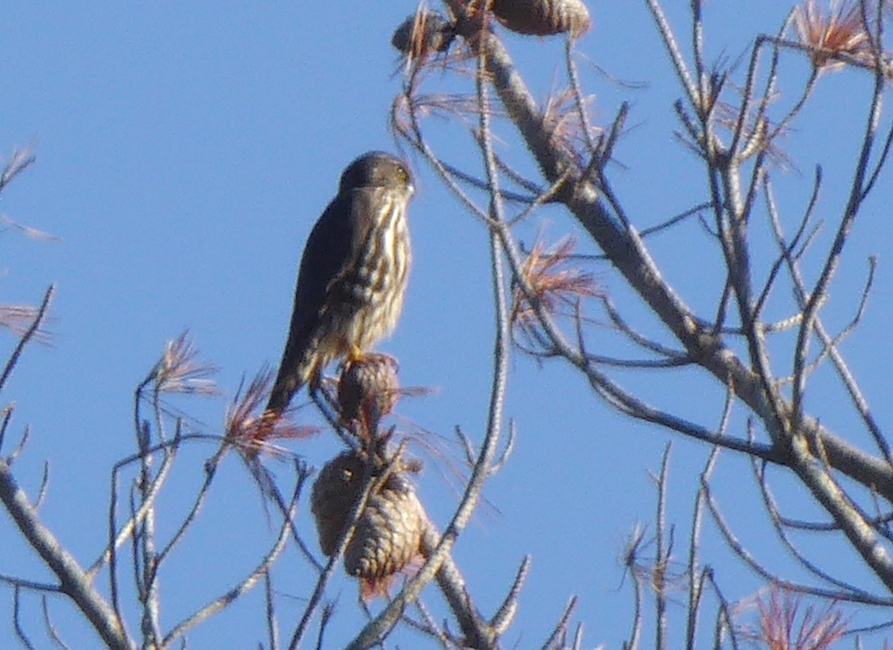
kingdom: Animalia
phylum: Chordata
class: Aves
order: Falconiformes
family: Falconidae
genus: Falco
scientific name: Falco columbarius
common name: Merlin
